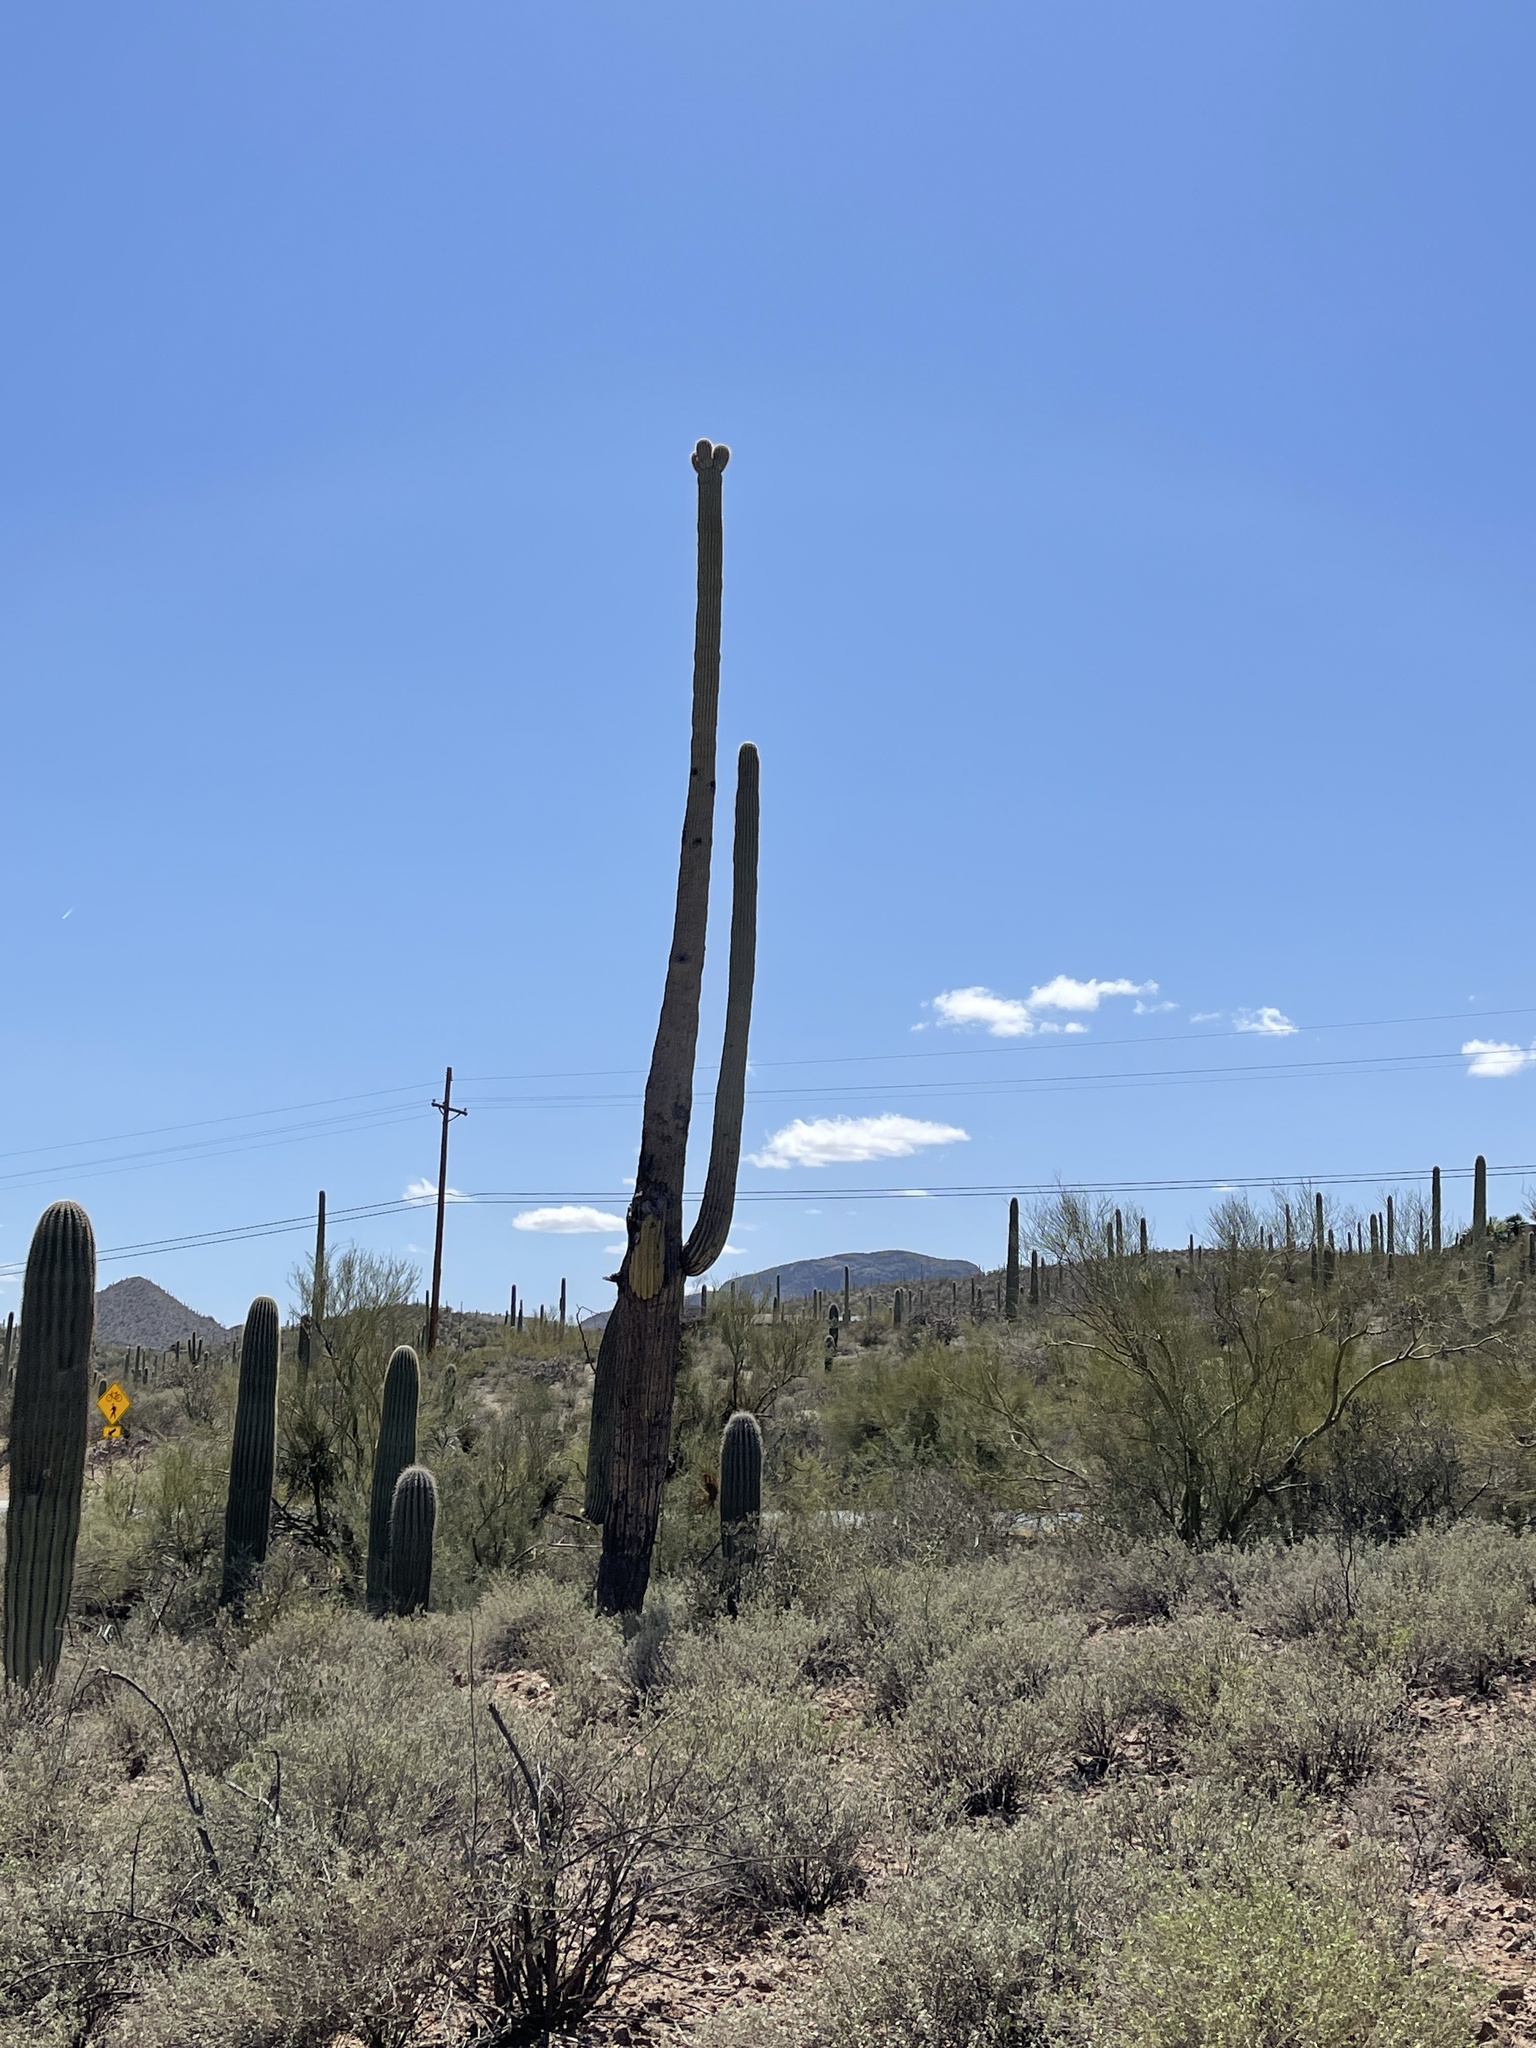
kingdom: Plantae
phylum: Tracheophyta
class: Magnoliopsida
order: Caryophyllales
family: Cactaceae
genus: Carnegiea
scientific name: Carnegiea gigantea
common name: Saguaro
